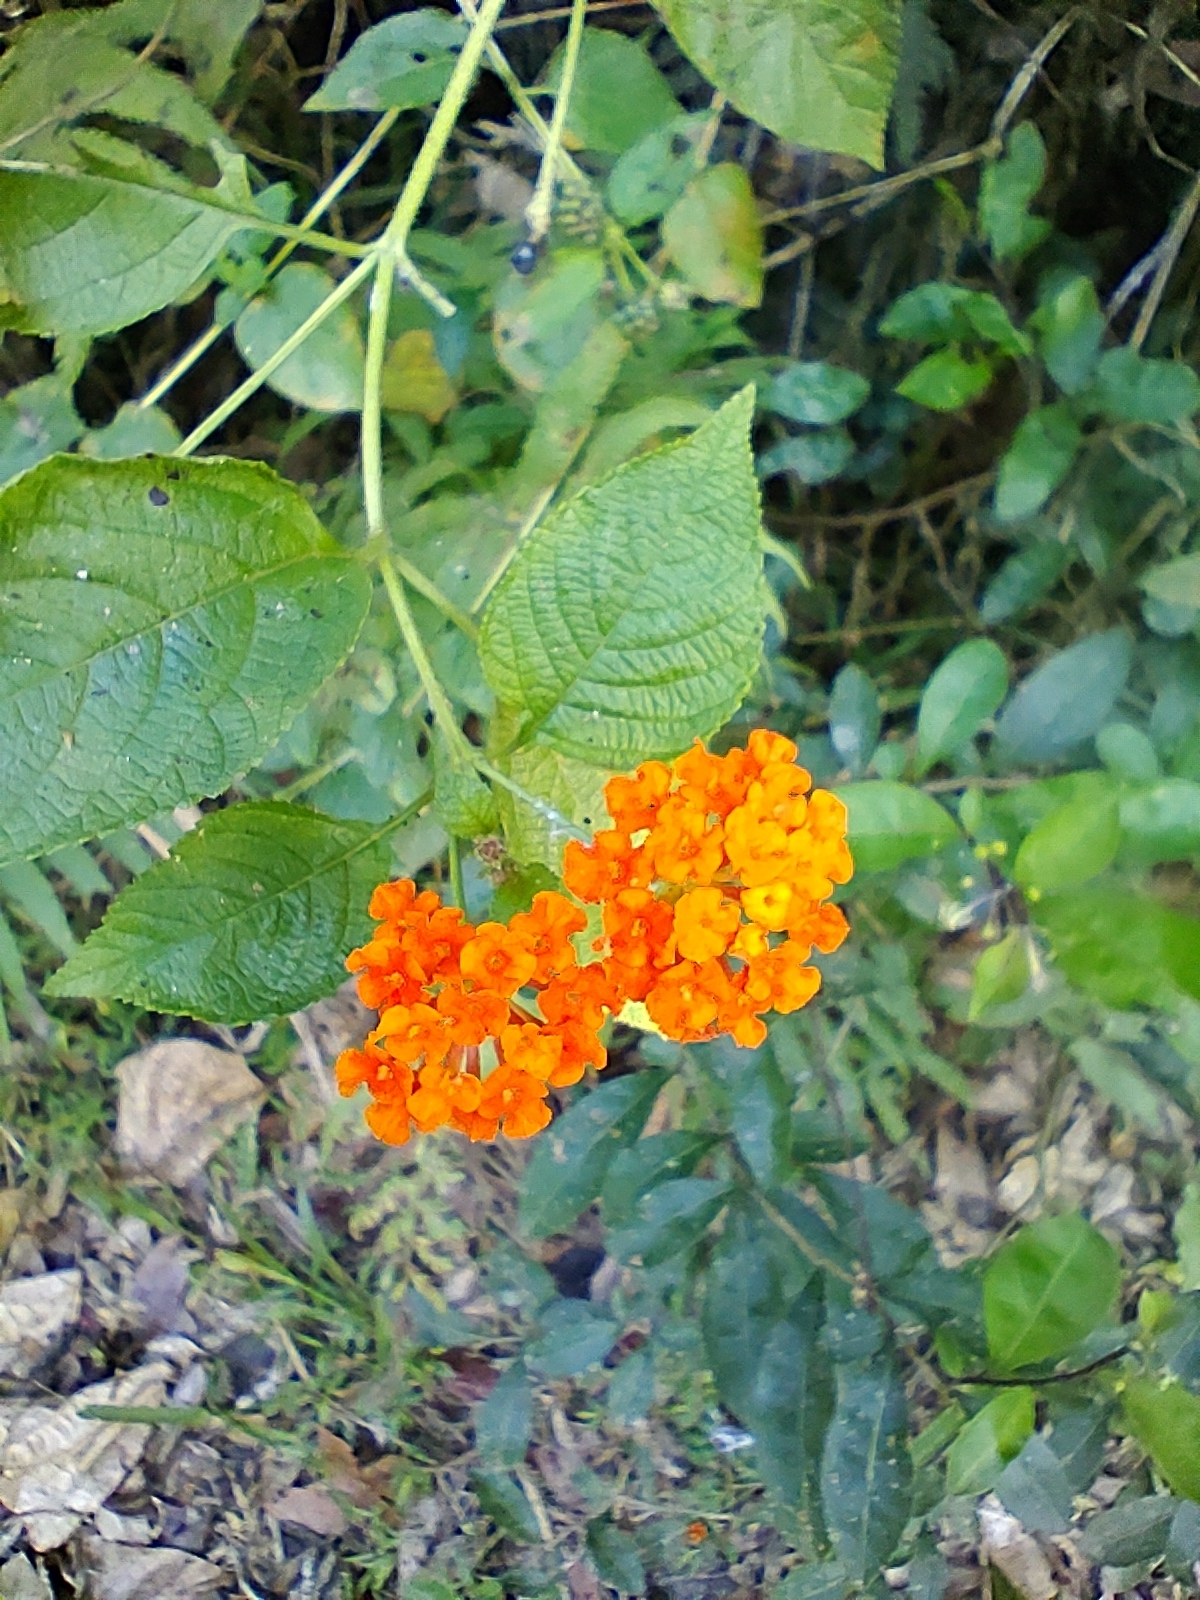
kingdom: Plantae
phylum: Tracheophyta
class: Magnoliopsida
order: Lamiales
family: Verbenaceae
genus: Lantana
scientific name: Lantana camara
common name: Lantana
